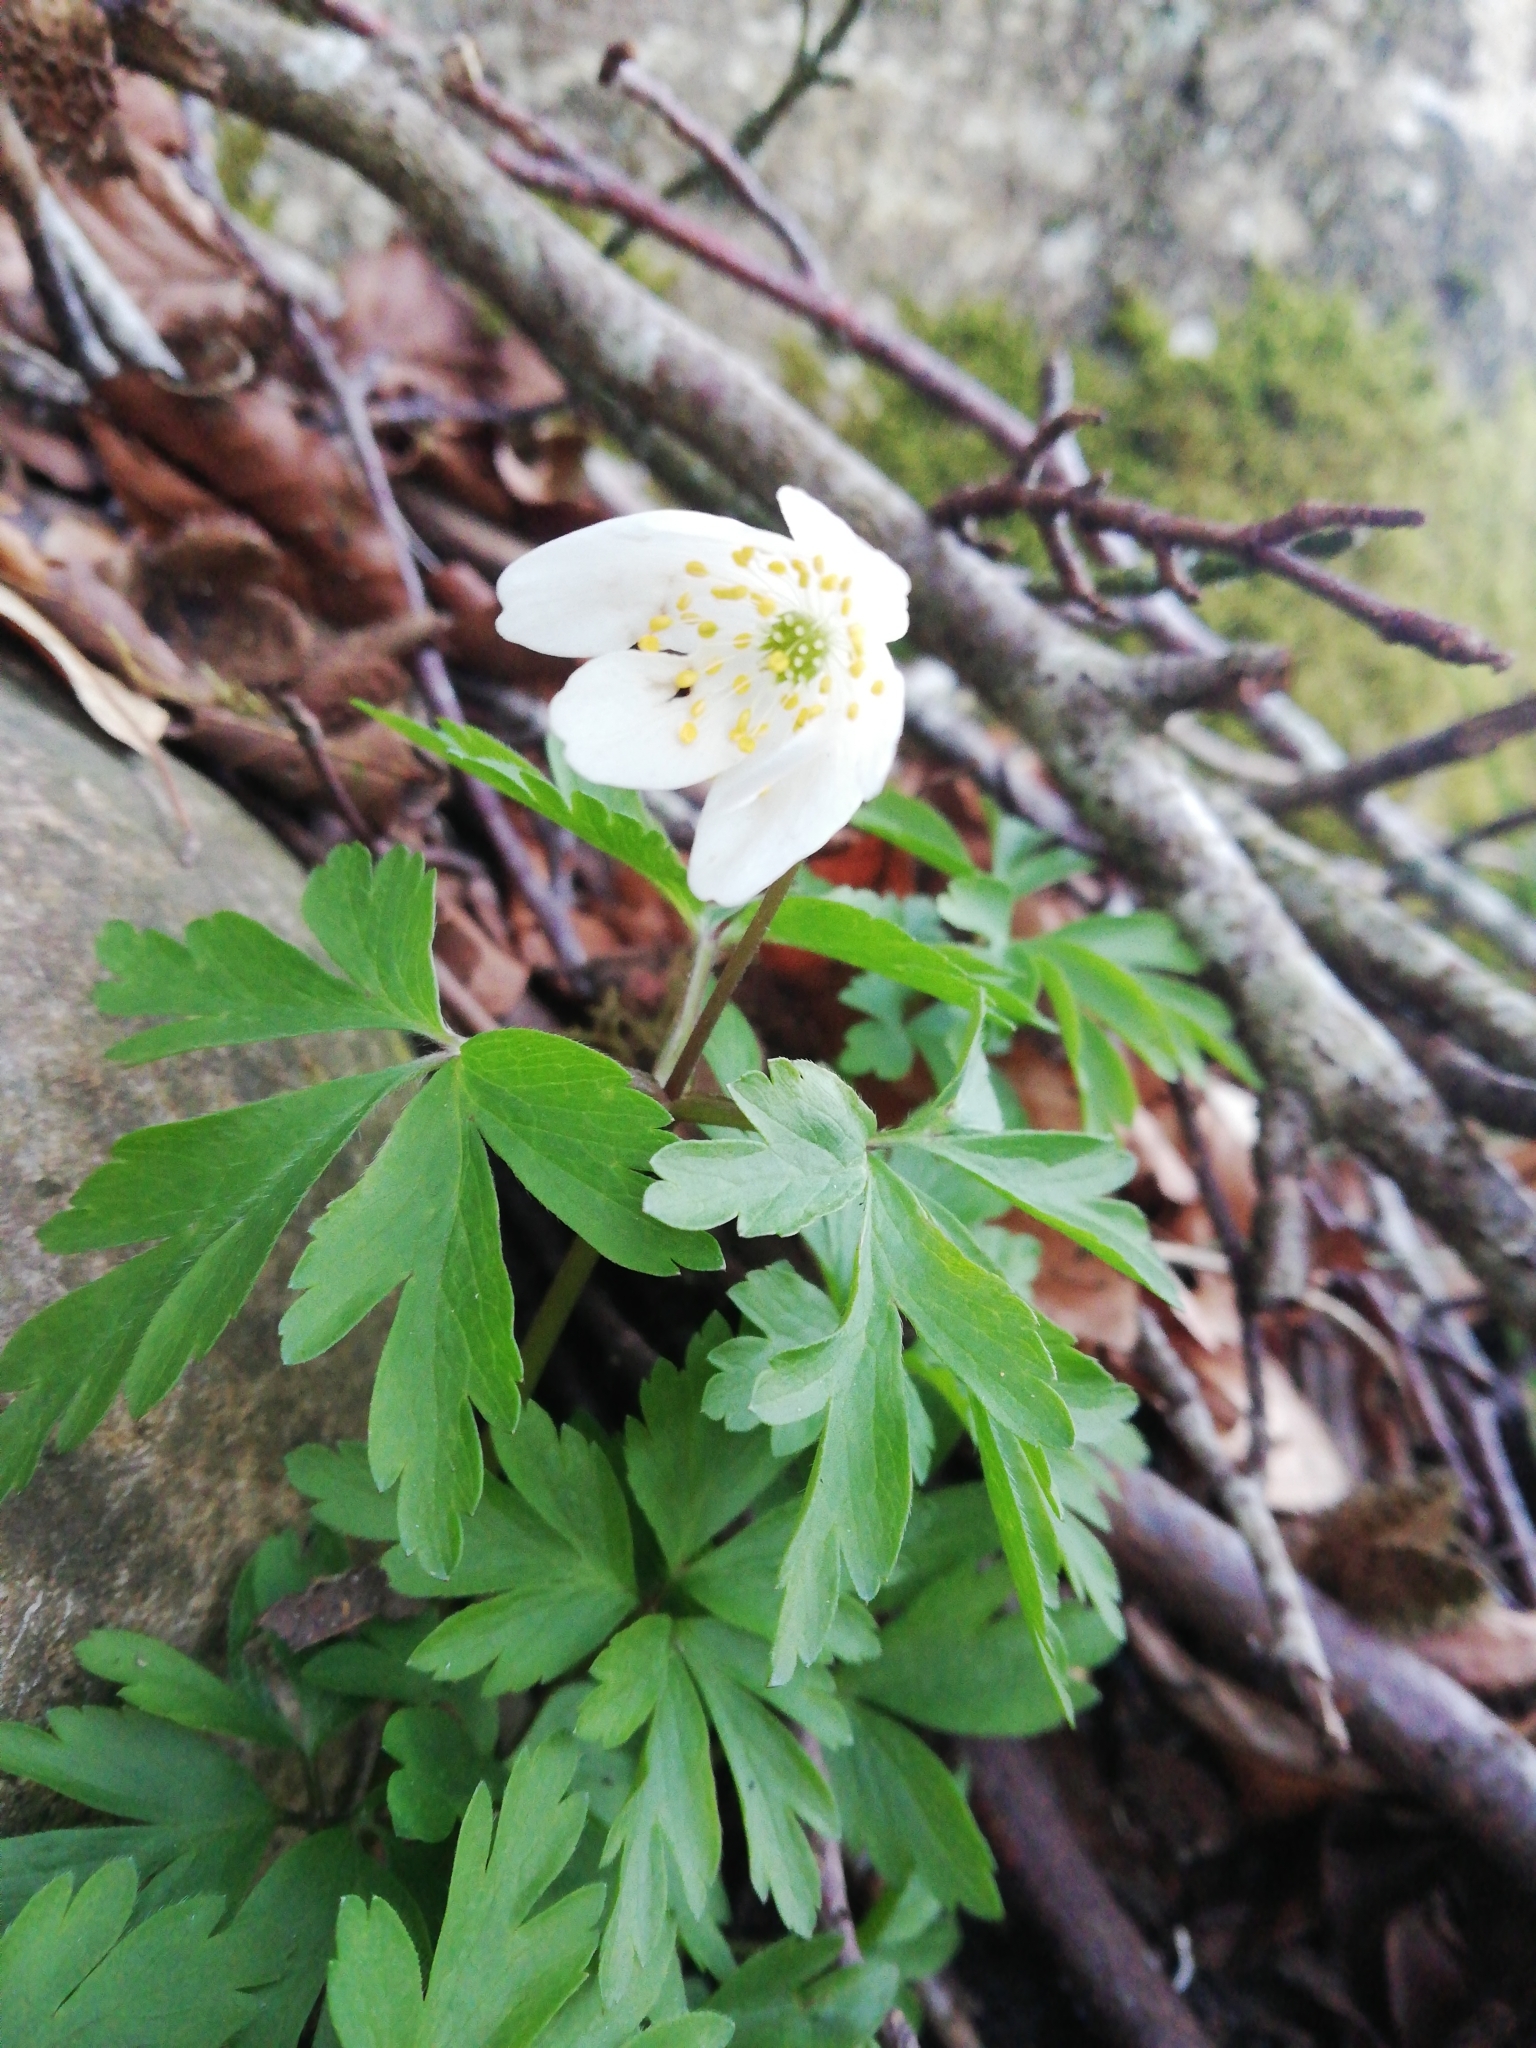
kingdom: Plantae
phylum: Tracheophyta
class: Magnoliopsida
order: Ranunculales
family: Ranunculaceae
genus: Anemone
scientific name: Anemone nemorosa
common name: Wood anemone
